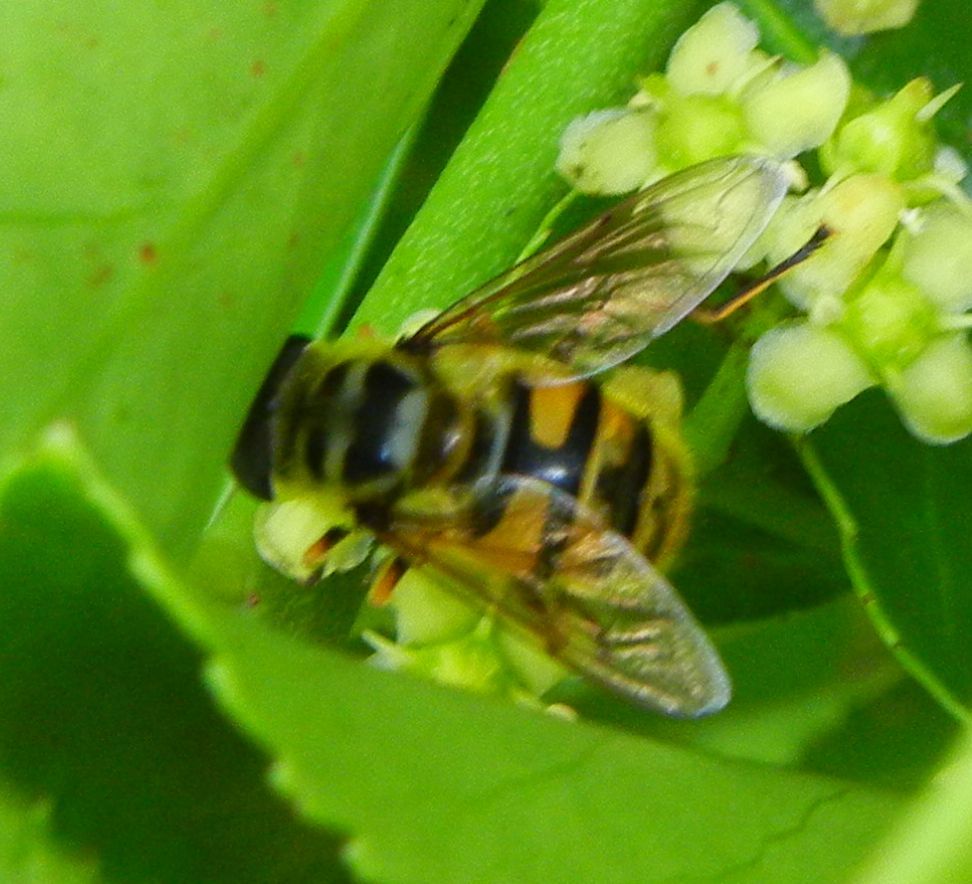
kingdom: Animalia
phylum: Arthropoda
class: Insecta
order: Diptera
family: Syrphidae
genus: Myathropa
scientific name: Myathropa florea
